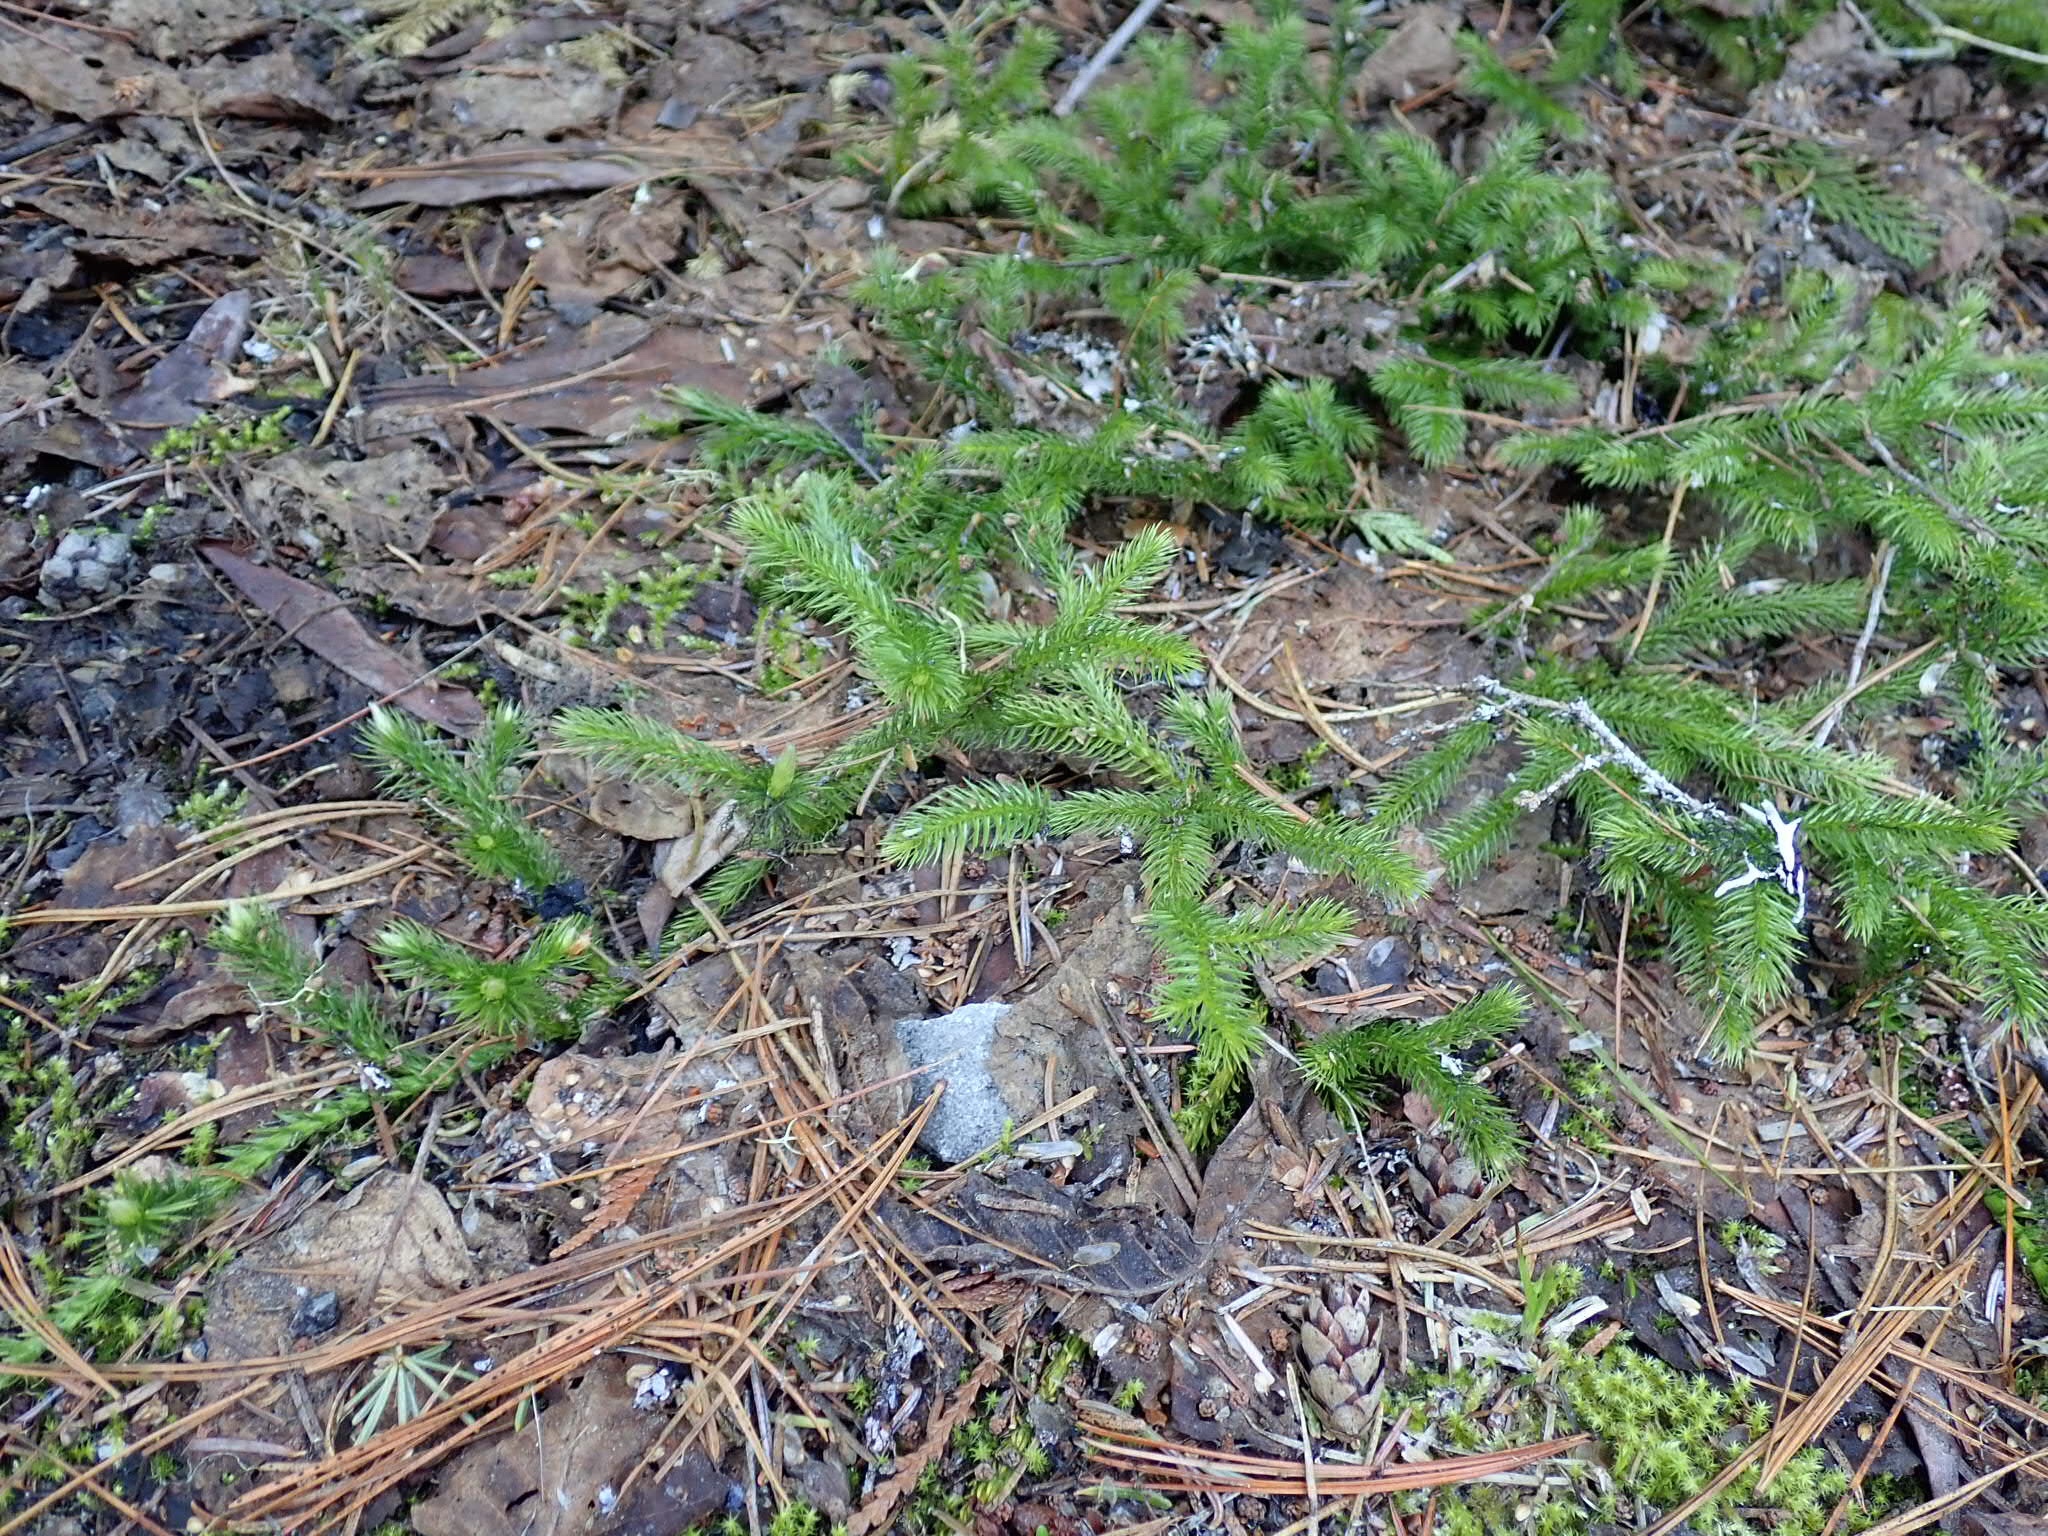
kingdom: Plantae
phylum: Tracheophyta
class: Lycopodiopsida
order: Lycopodiales
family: Lycopodiaceae
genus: Lycopodium
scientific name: Lycopodium clavatum
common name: Stag's-horn clubmoss
